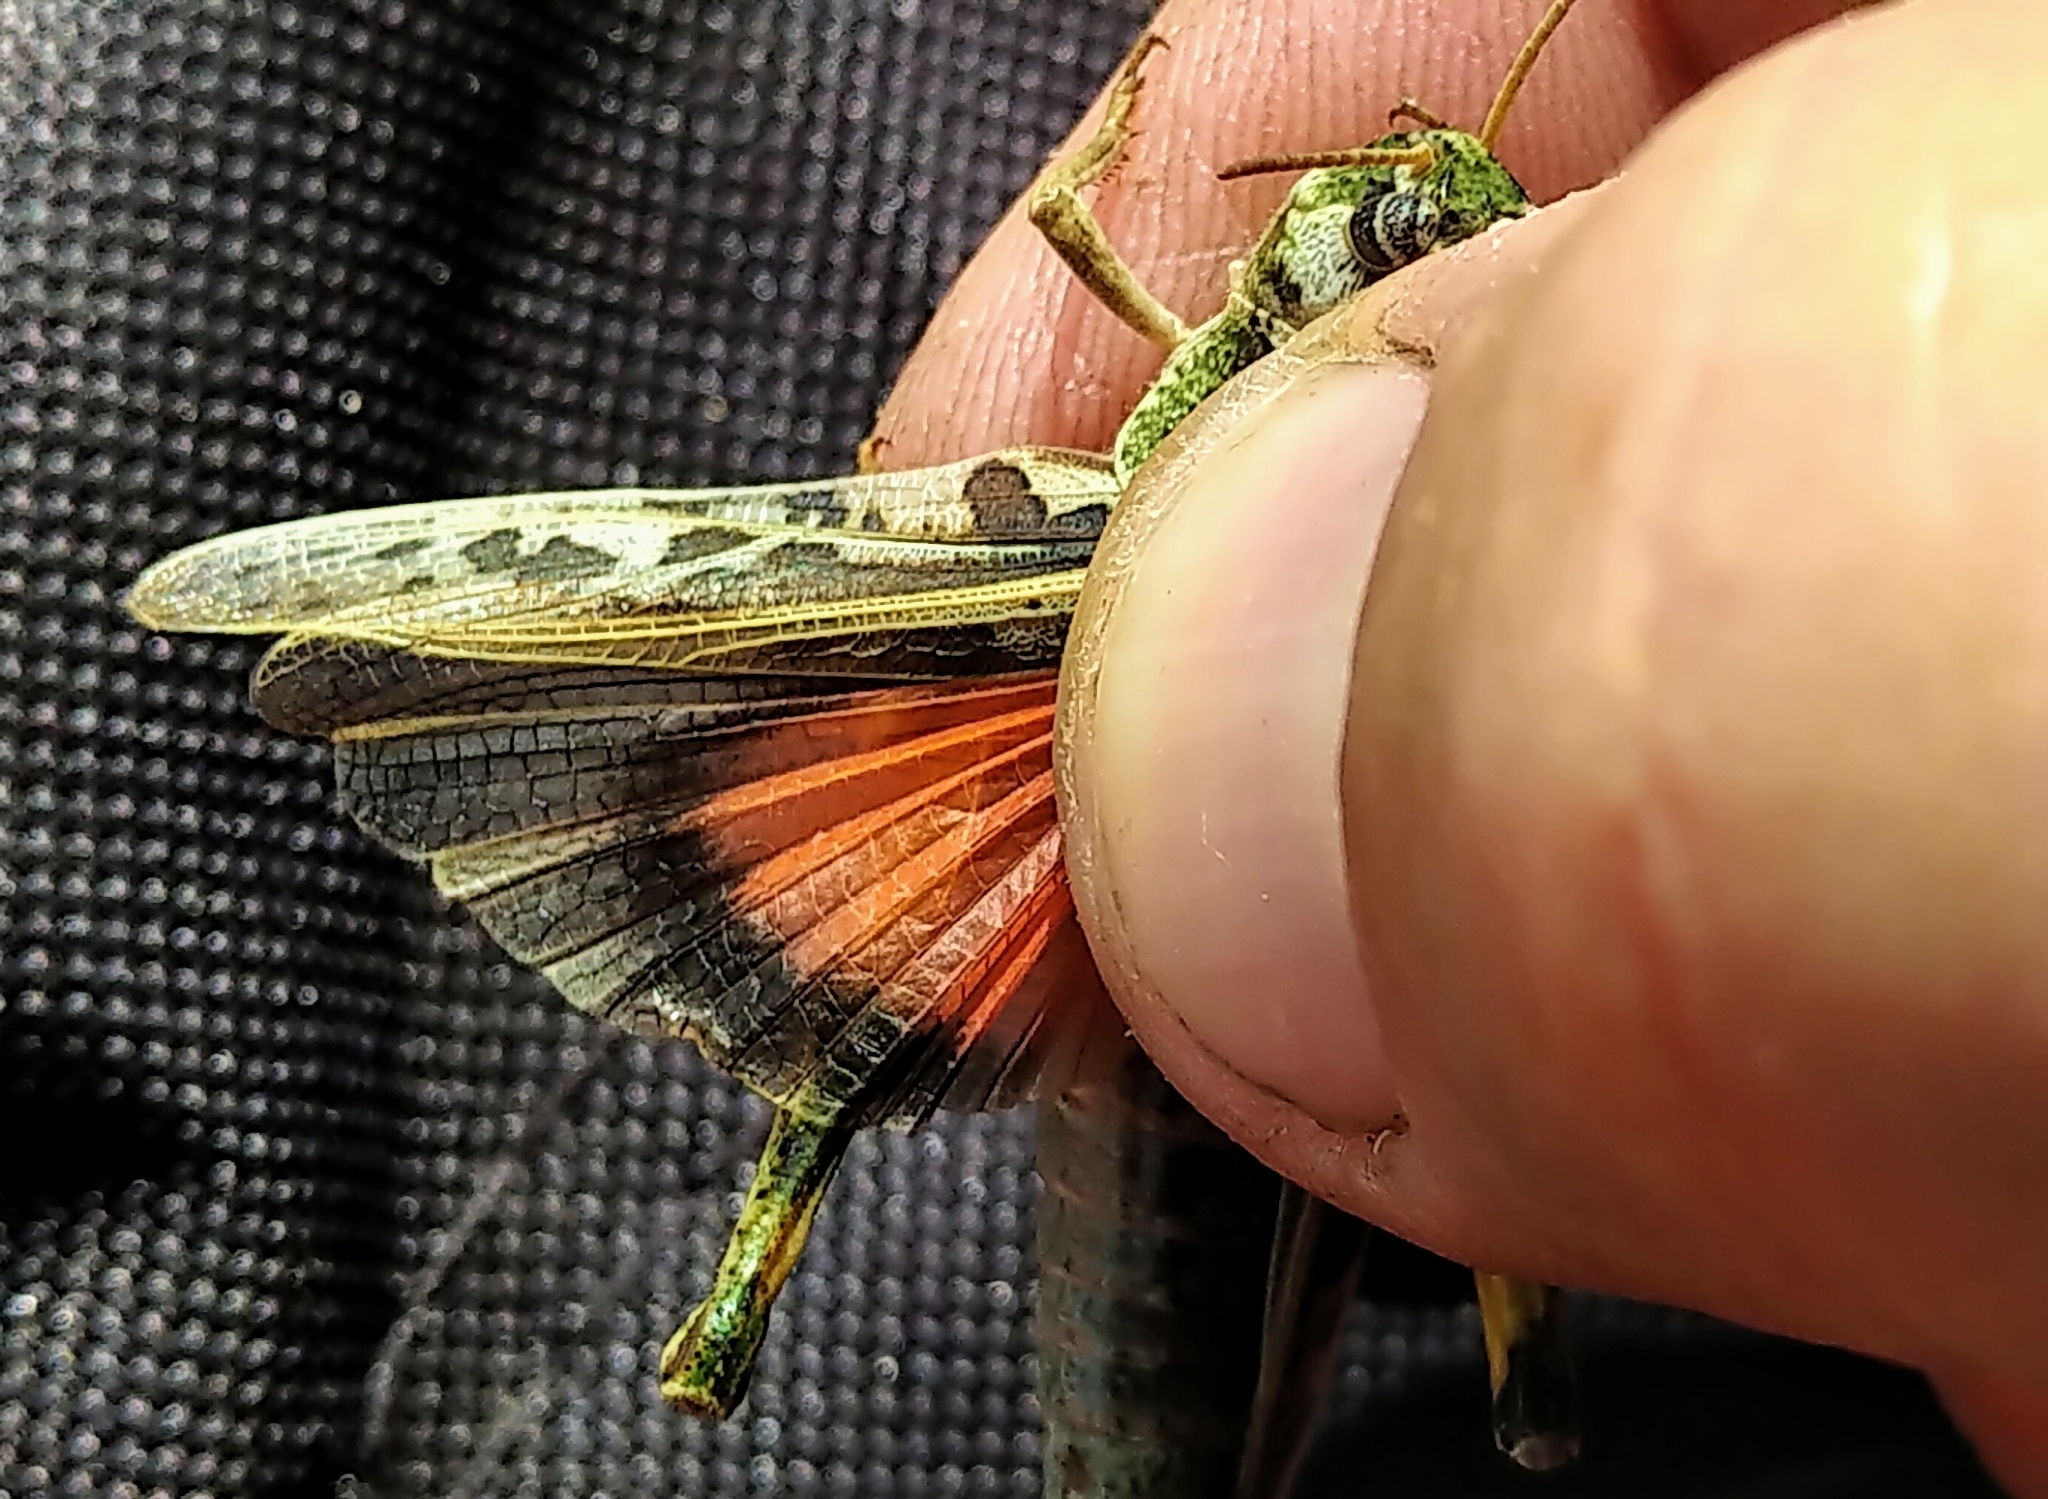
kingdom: Animalia
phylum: Arthropoda
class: Insecta
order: Orthoptera
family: Acrididae
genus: Pardalophora
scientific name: Pardalophora apiculata
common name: Coral-winged locust
